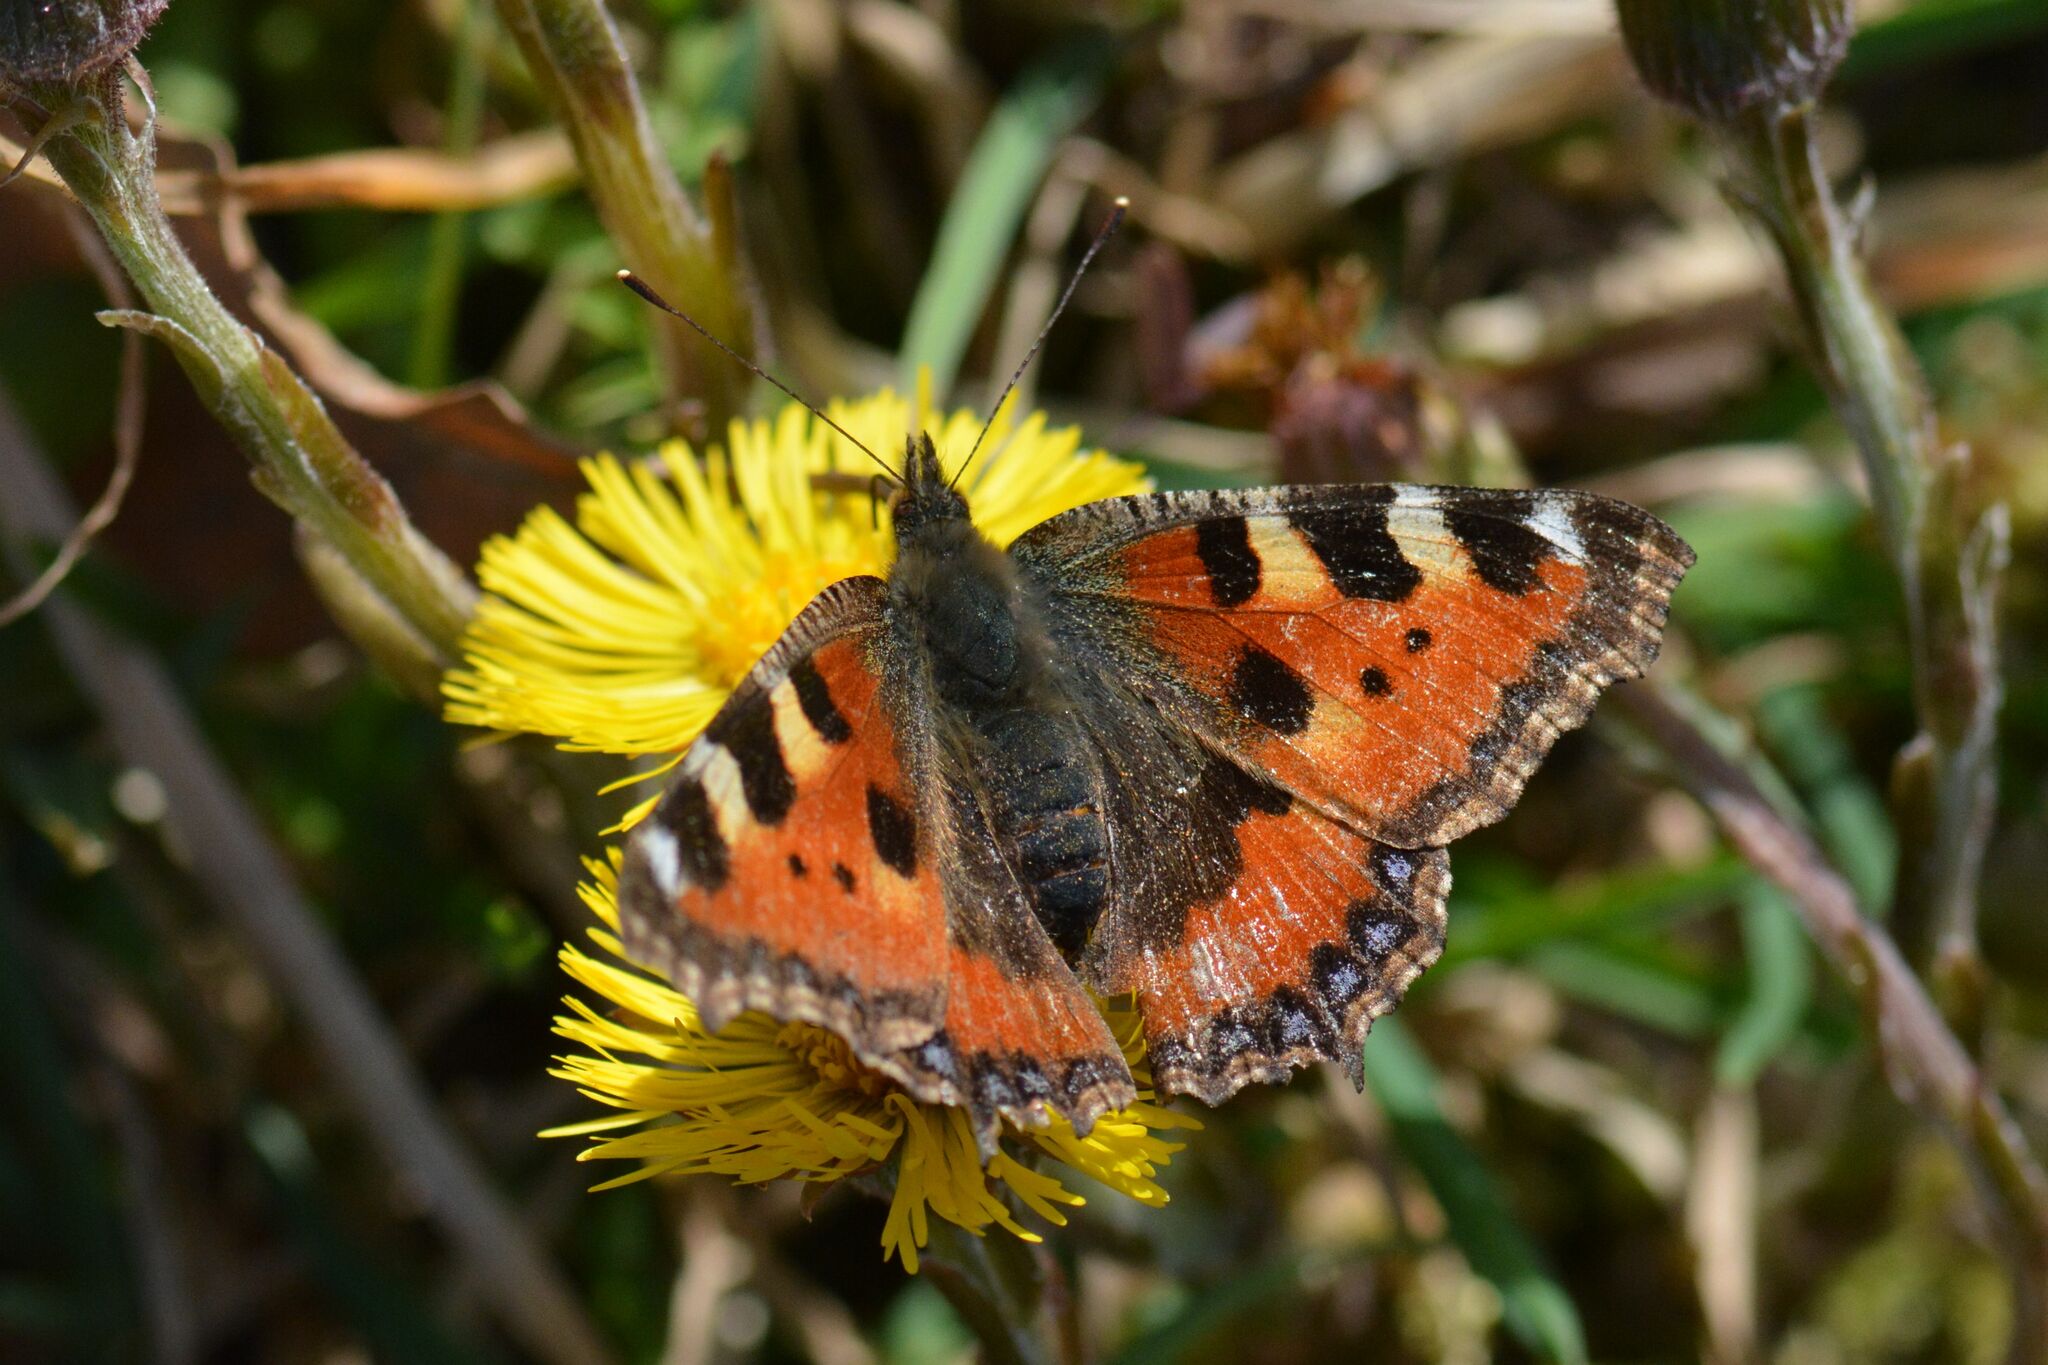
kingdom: Animalia
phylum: Arthropoda
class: Insecta
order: Lepidoptera
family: Nymphalidae
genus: Aglais
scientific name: Aglais urticae
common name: Small tortoiseshell
